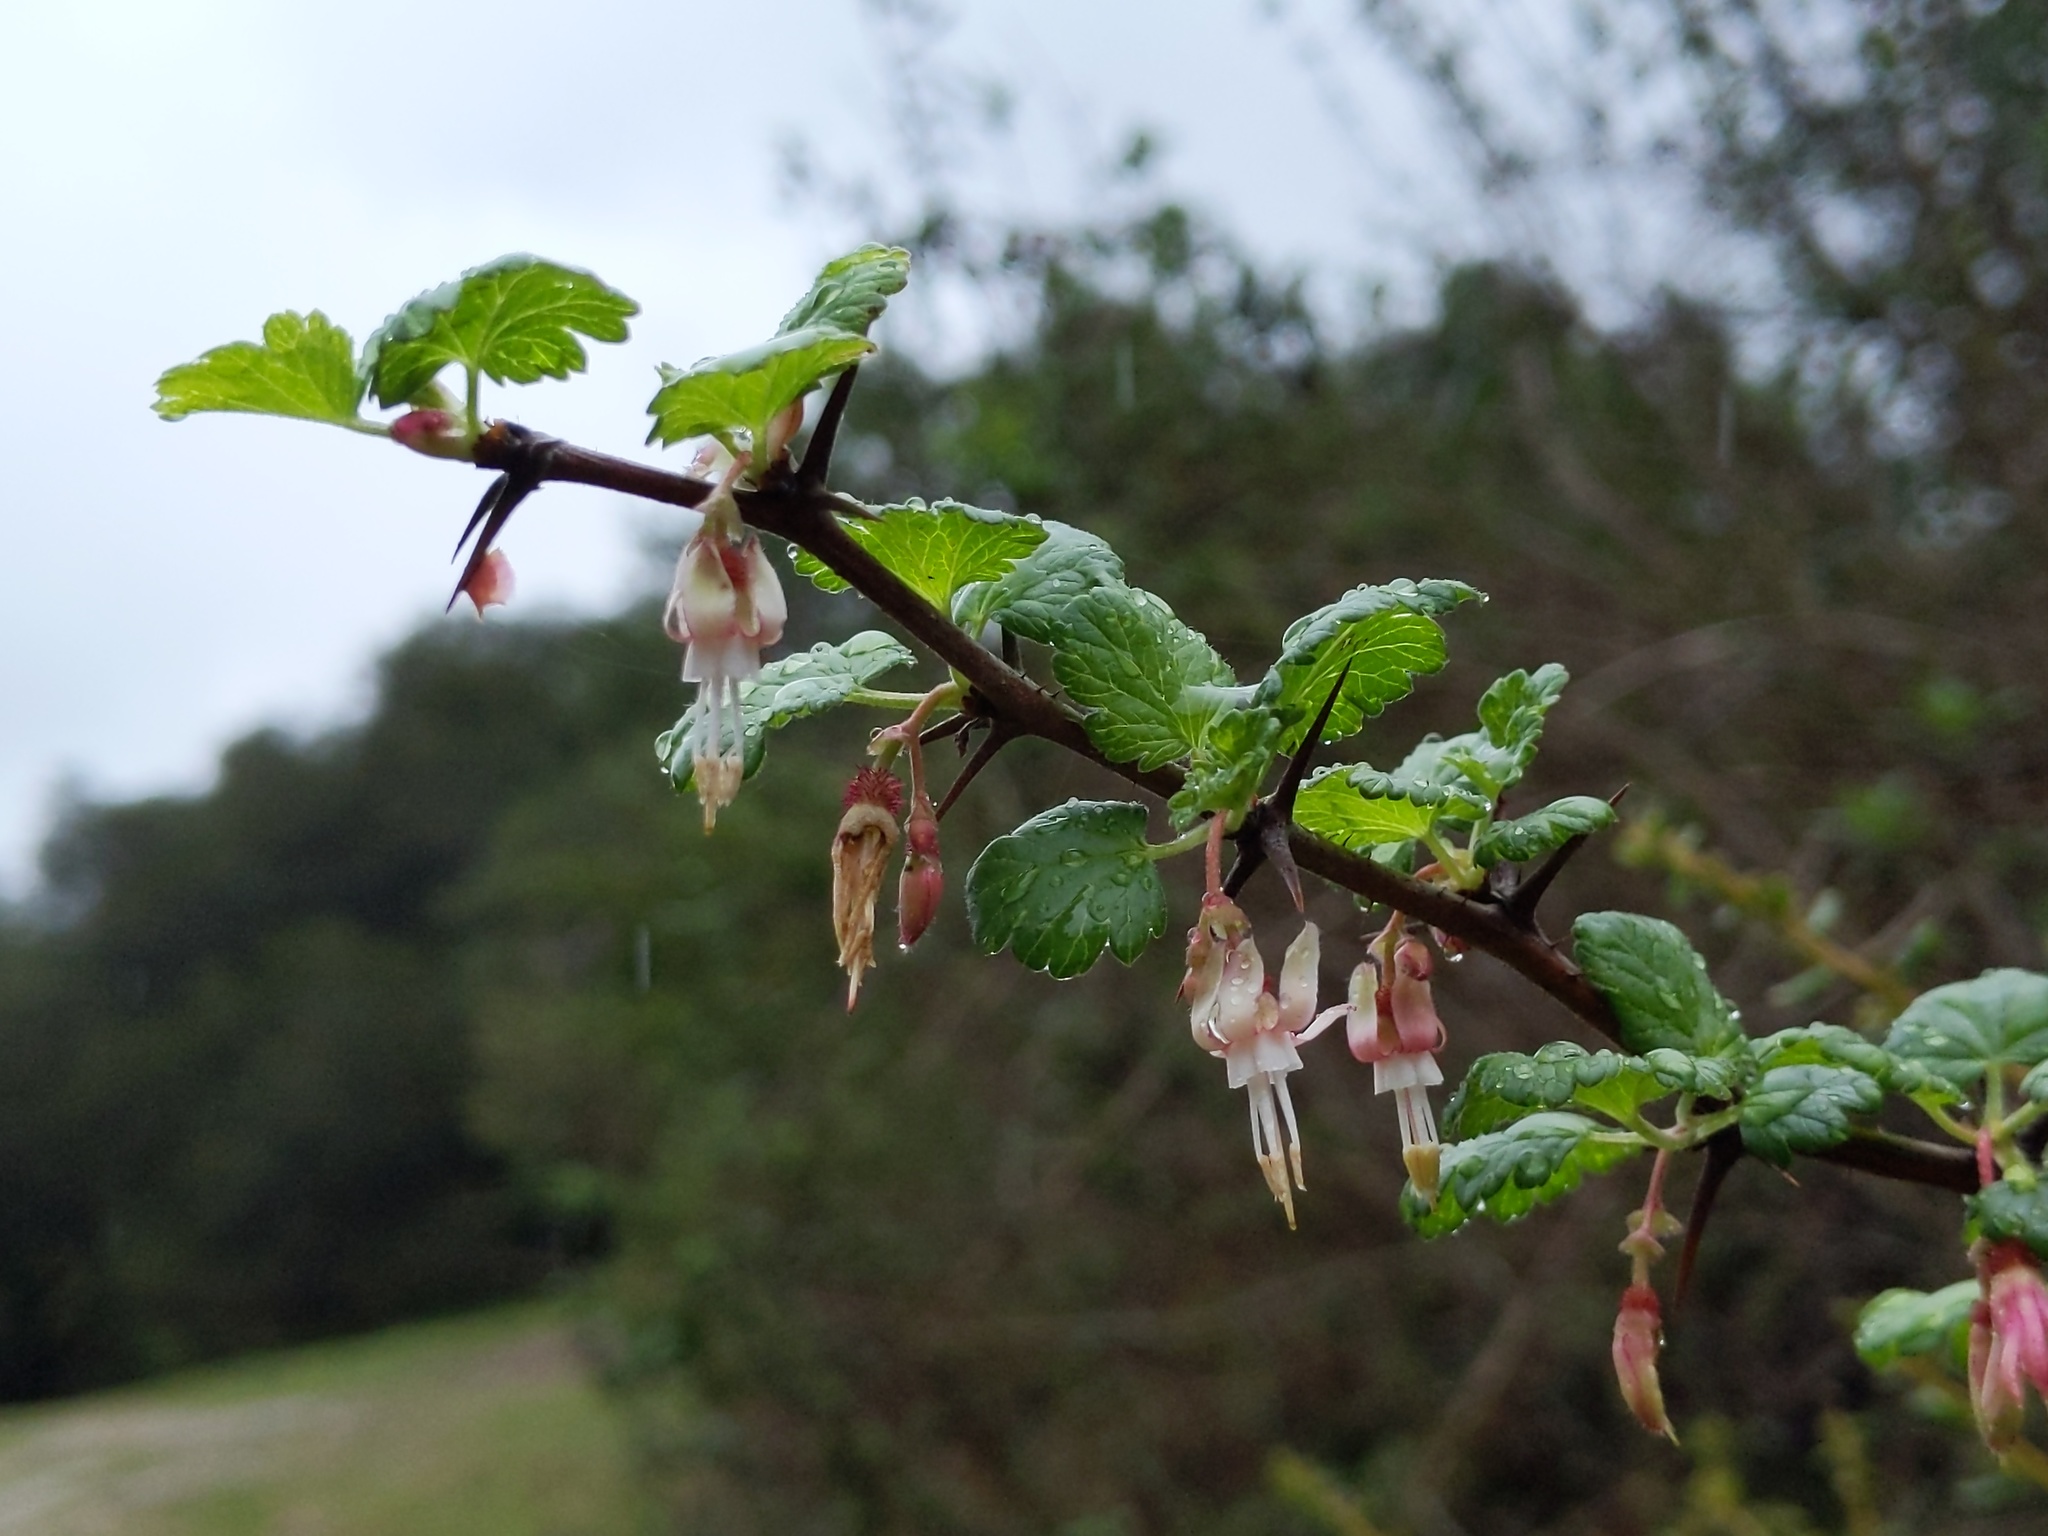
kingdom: Plantae
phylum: Tracheophyta
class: Magnoliopsida
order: Saxifragales
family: Grossulariaceae
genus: Ribes
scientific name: Ribes californicum
